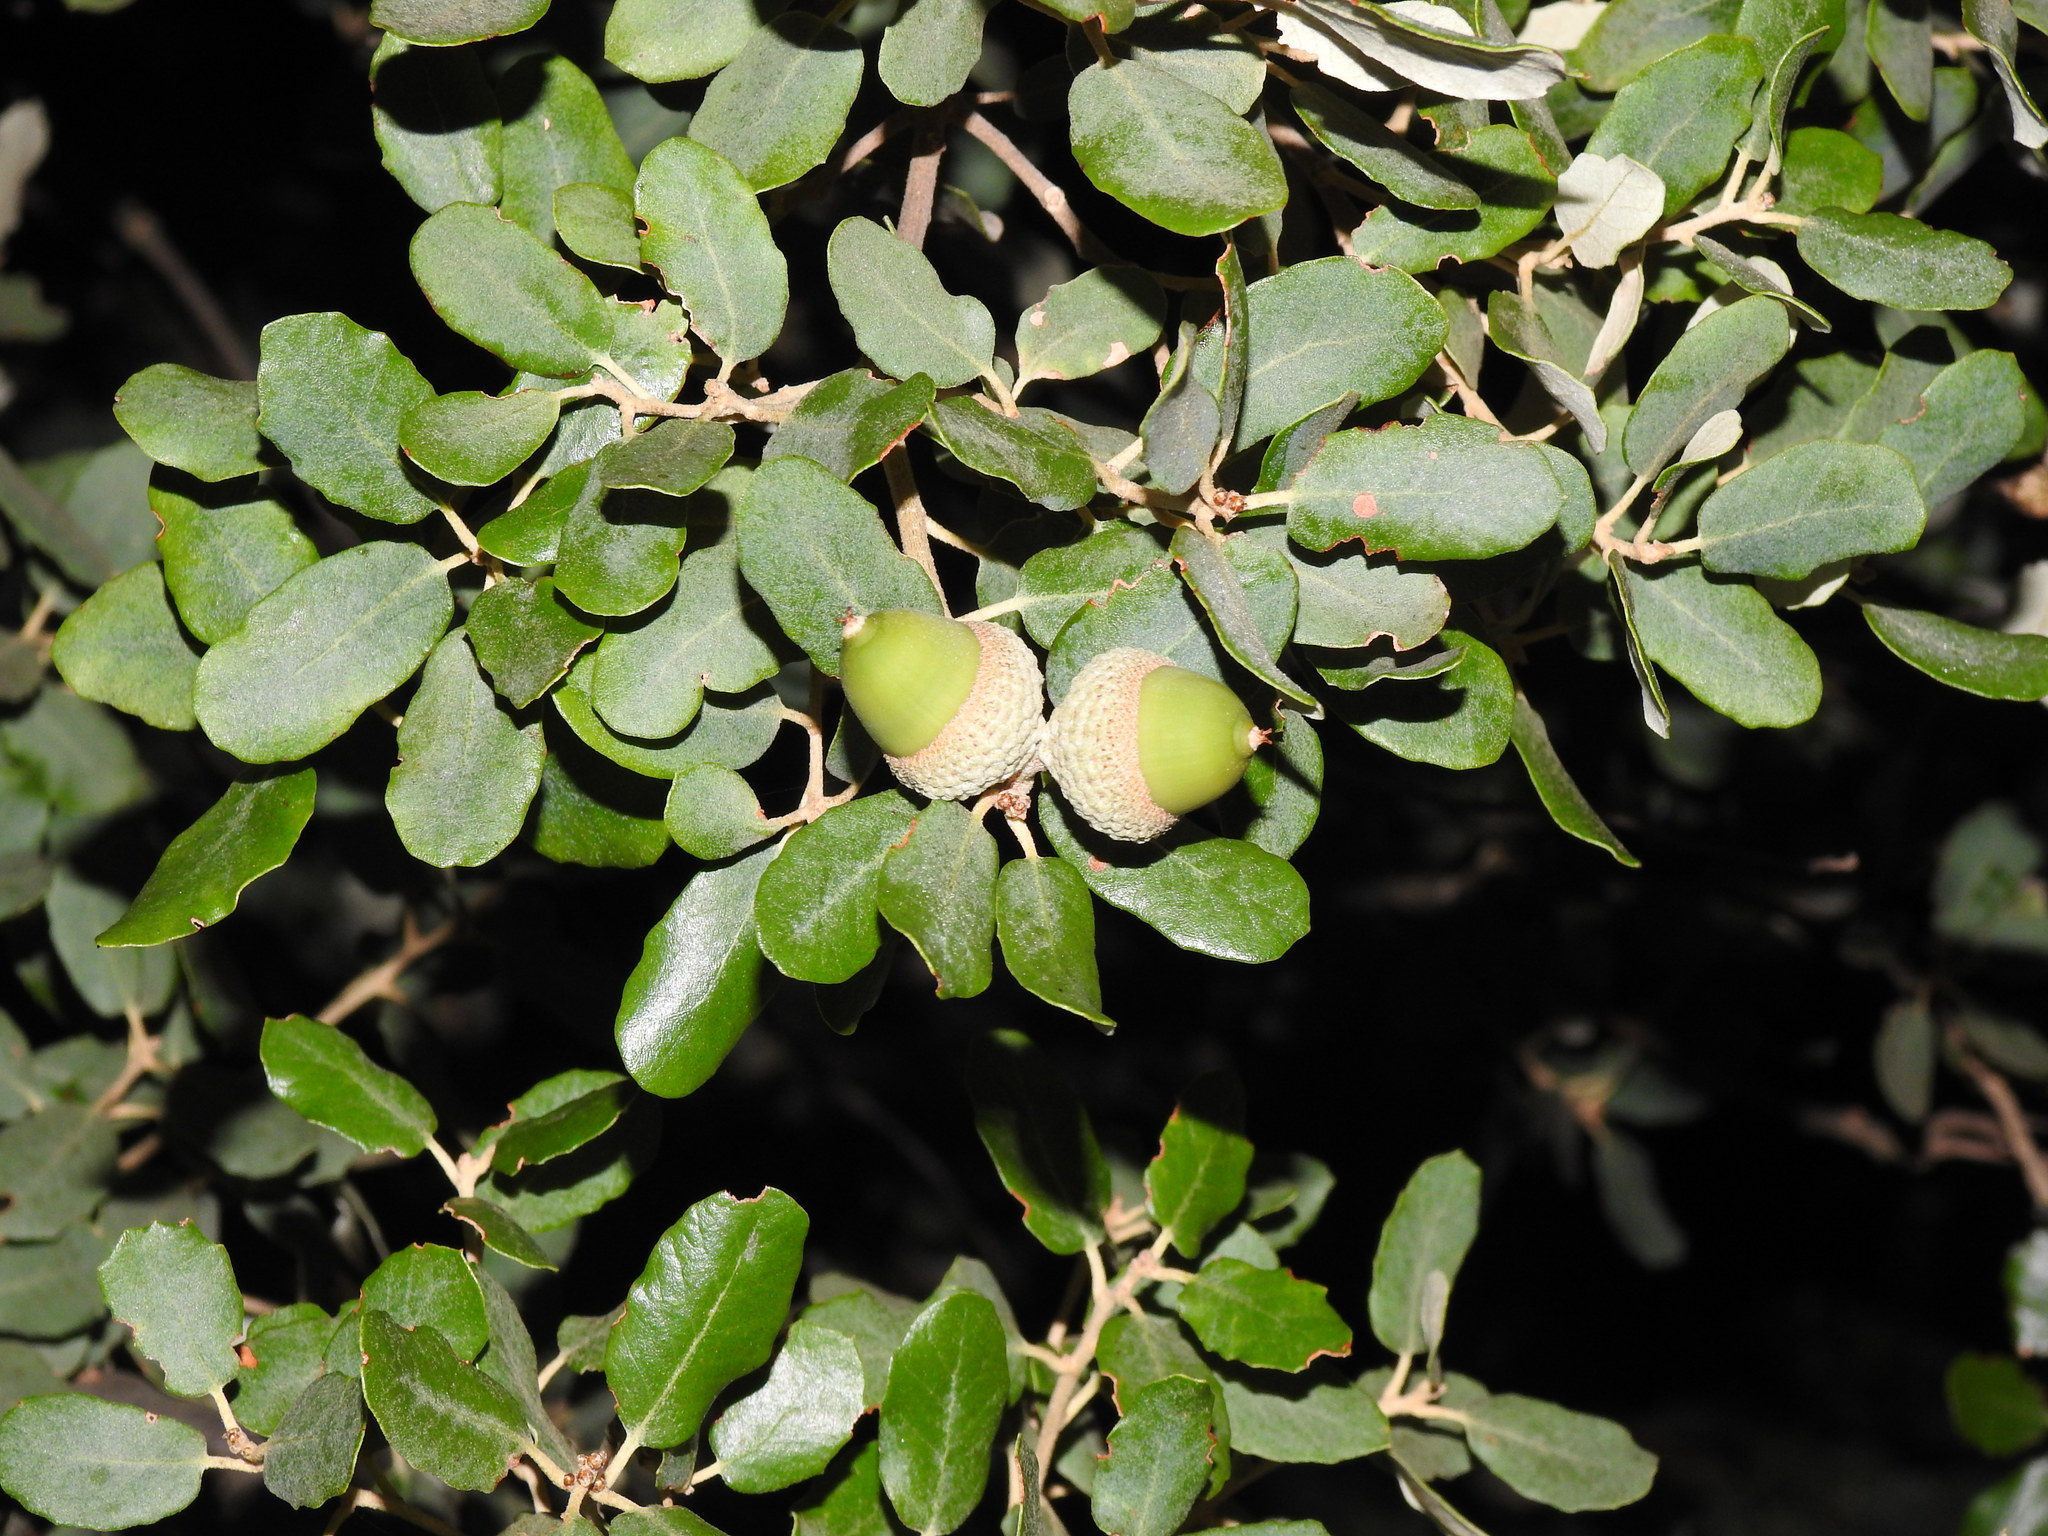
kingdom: Plantae
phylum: Tracheophyta
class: Magnoliopsida
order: Fagales
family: Fagaceae
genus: Quercus
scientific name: Quercus rotundifolia
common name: Holm oak
